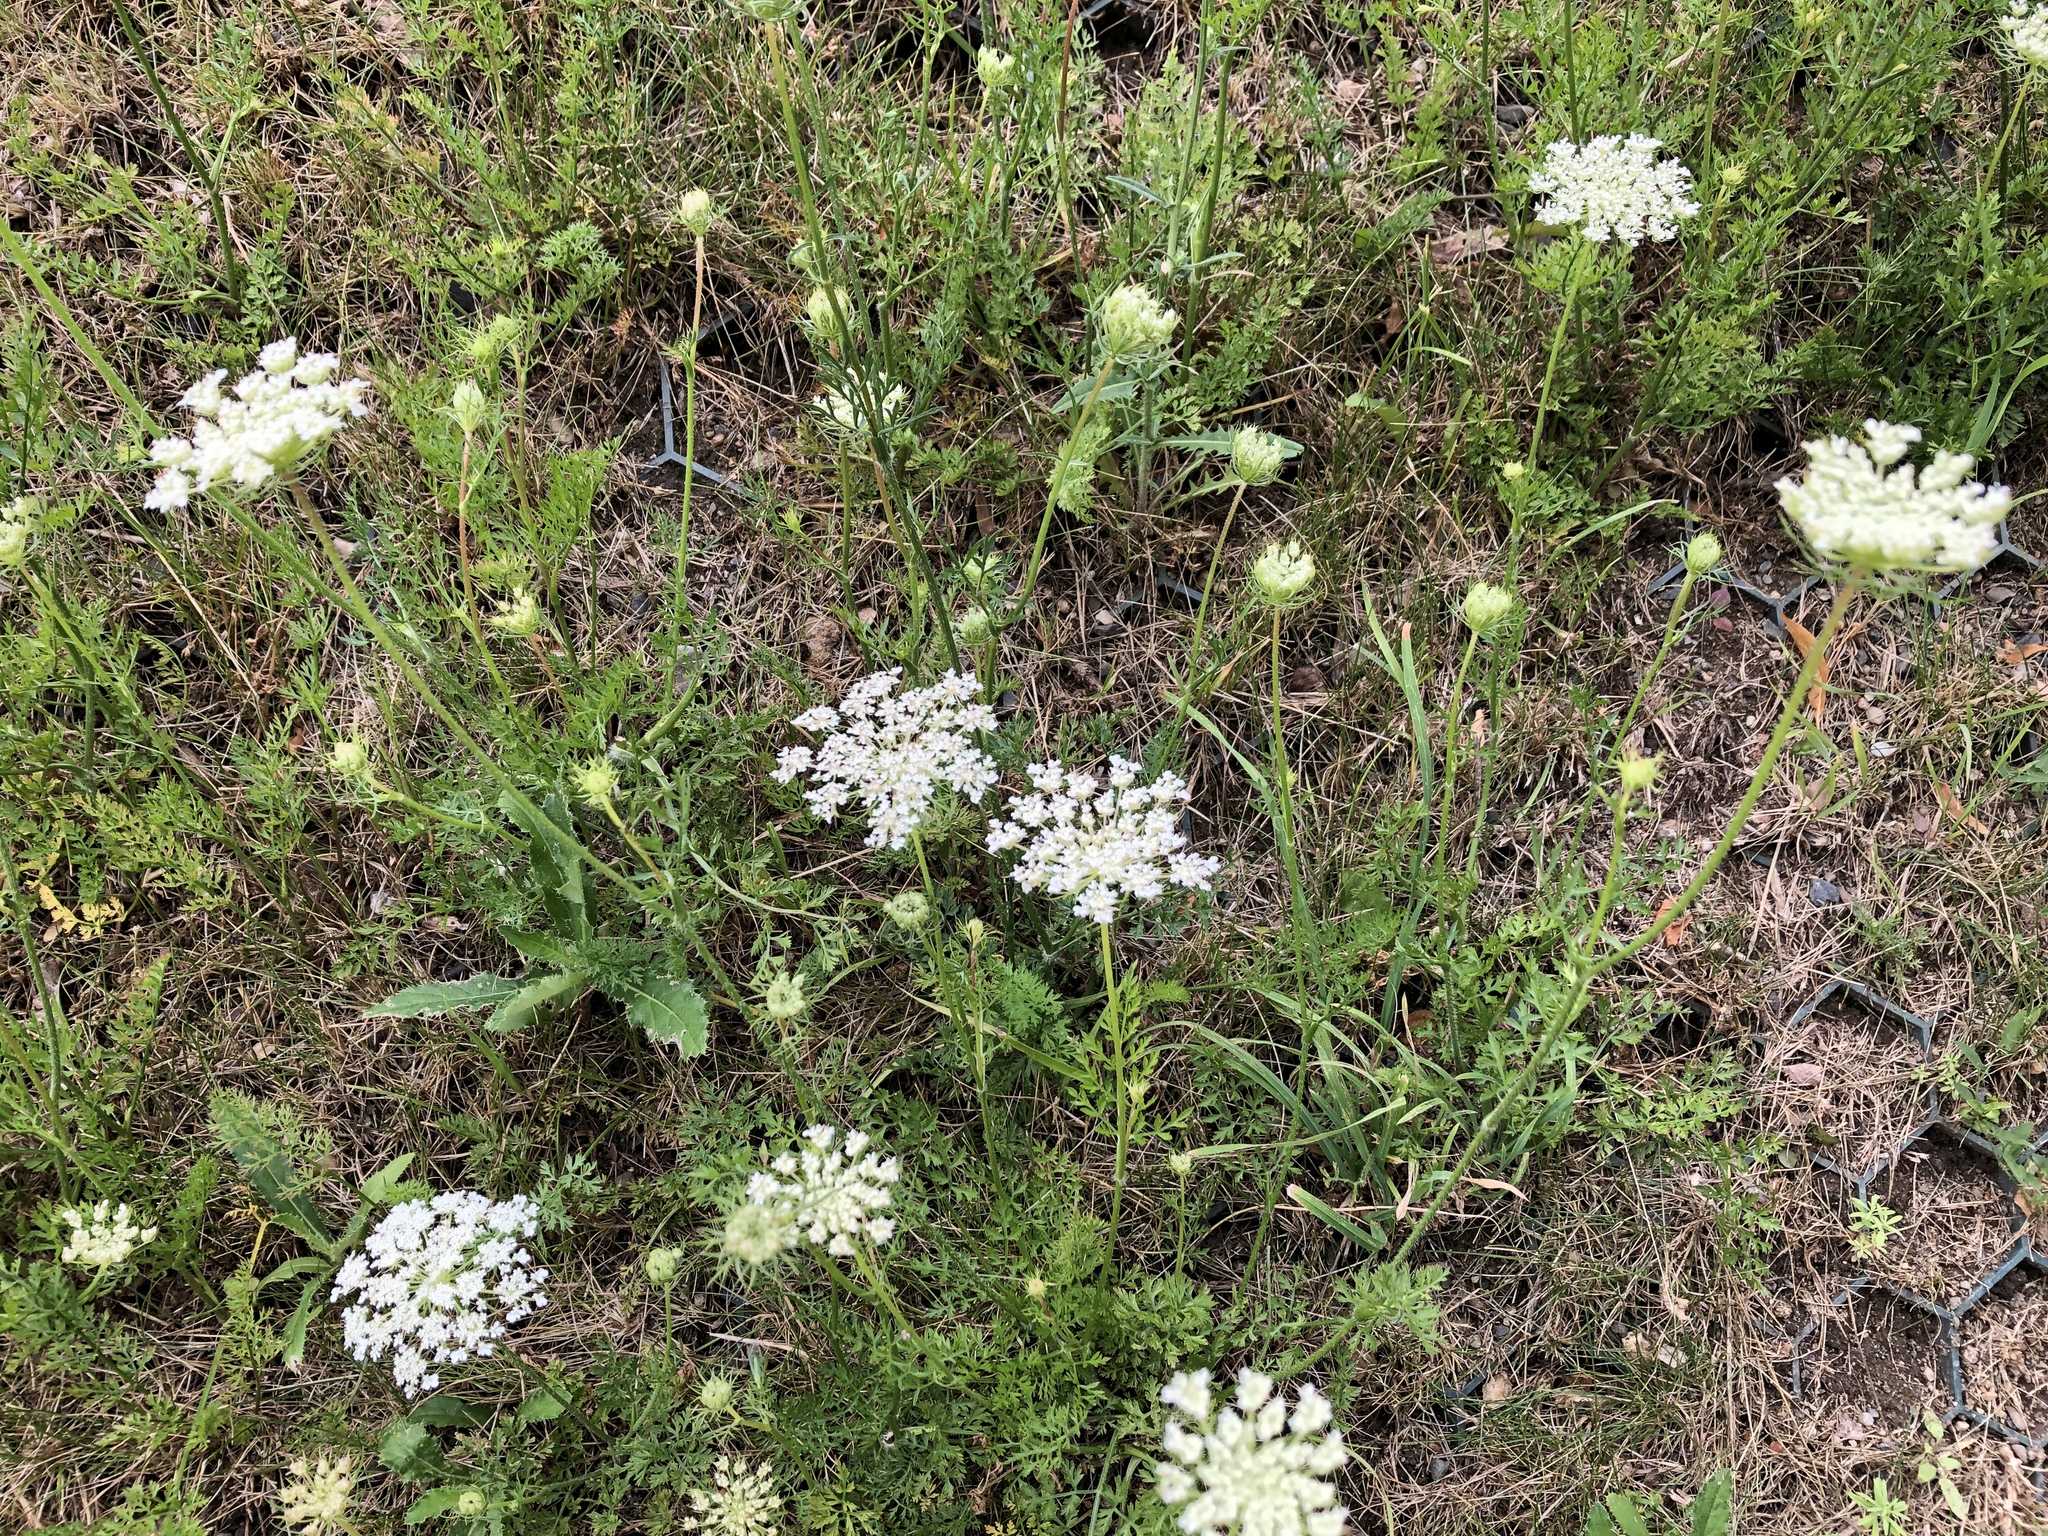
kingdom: Plantae
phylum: Tracheophyta
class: Magnoliopsida
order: Apiales
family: Apiaceae
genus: Daucus
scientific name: Daucus carota
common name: Wild carrot
